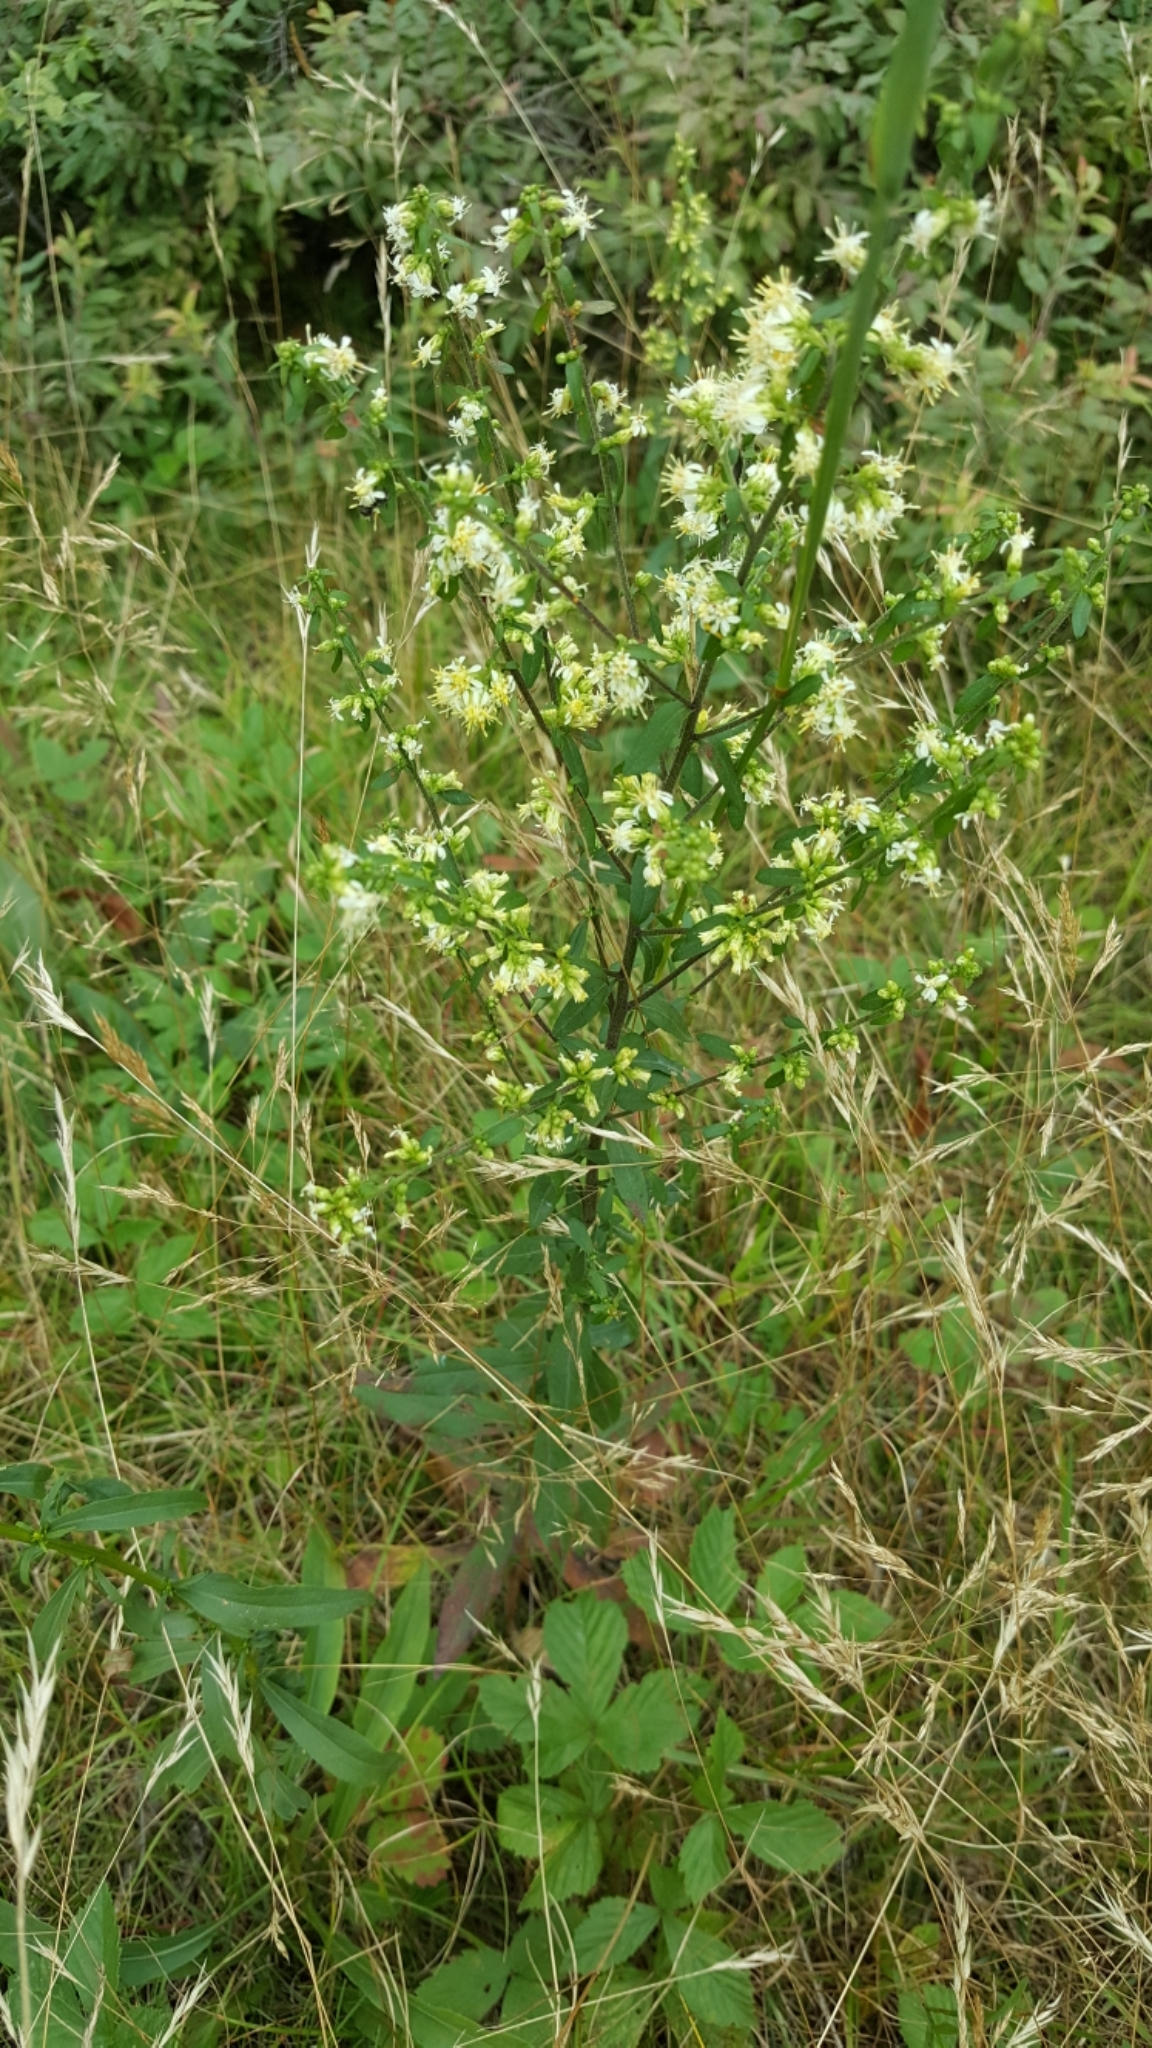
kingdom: Plantae
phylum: Tracheophyta
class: Magnoliopsida
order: Asterales
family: Asteraceae
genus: Solidago
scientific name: Solidago bicolor
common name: Silverrod
